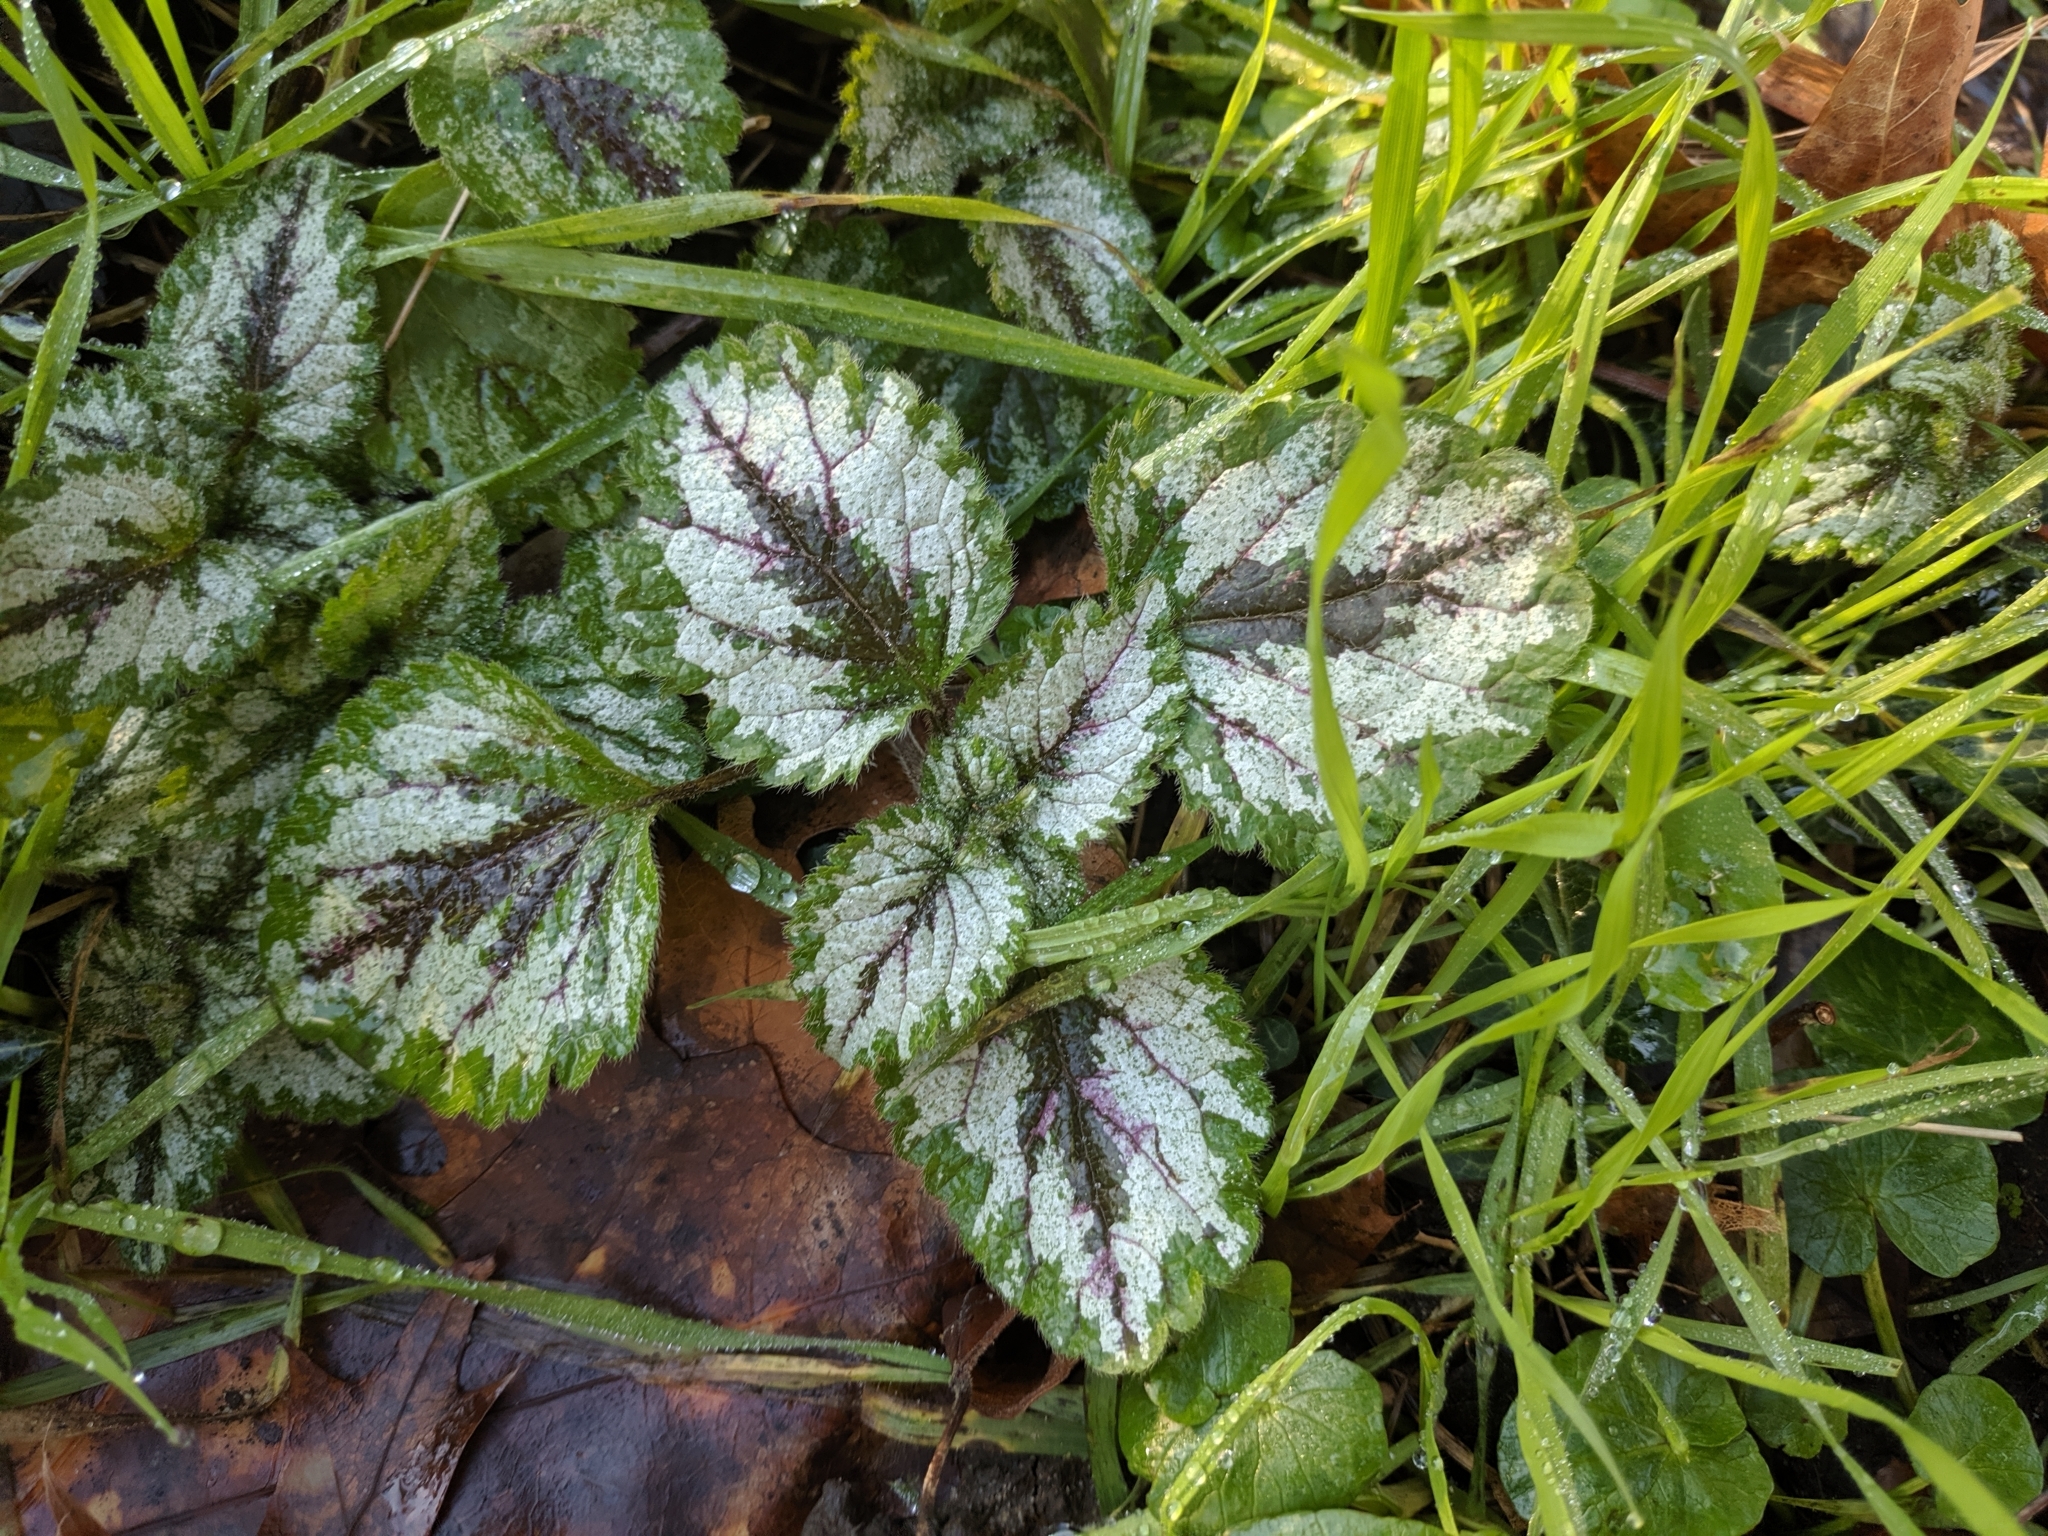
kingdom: Plantae
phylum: Tracheophyta
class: Magnoliopsida
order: Lamiales
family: Lamiaceae
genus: Lamium
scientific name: Lamium galeobdolon
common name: Yellow archangel
